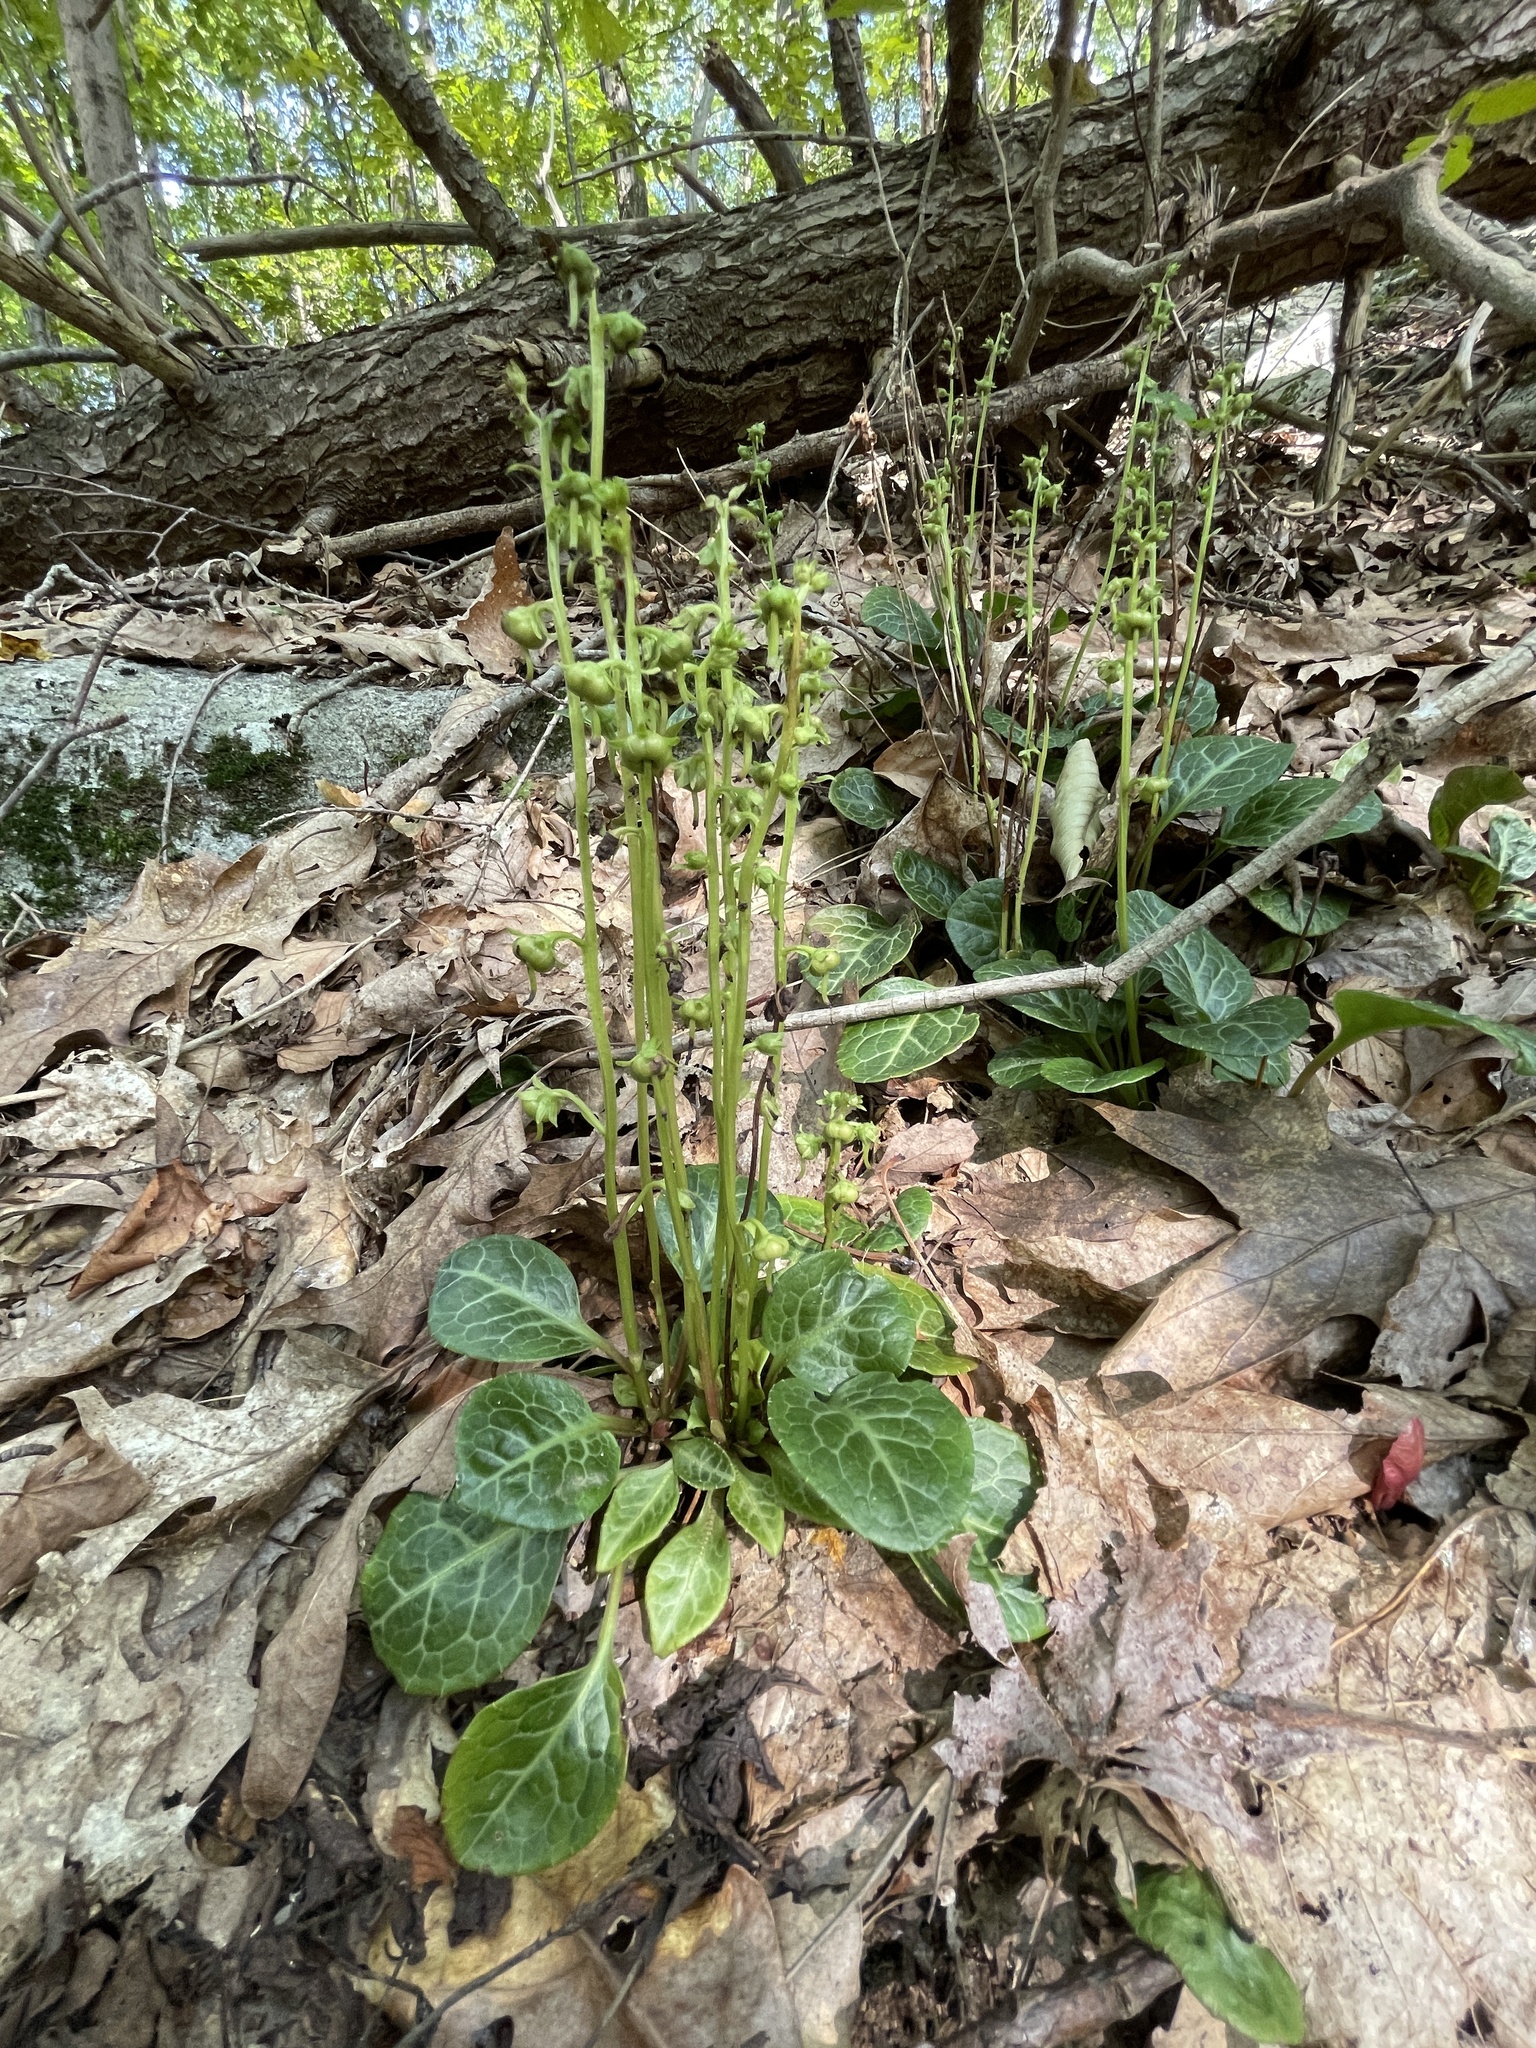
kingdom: Plantae
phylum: Tracheophyta
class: Magnoliopsida
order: Ericales
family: Ericaceae
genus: Pyrola
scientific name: Pyrola americana
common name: American wintergreen
